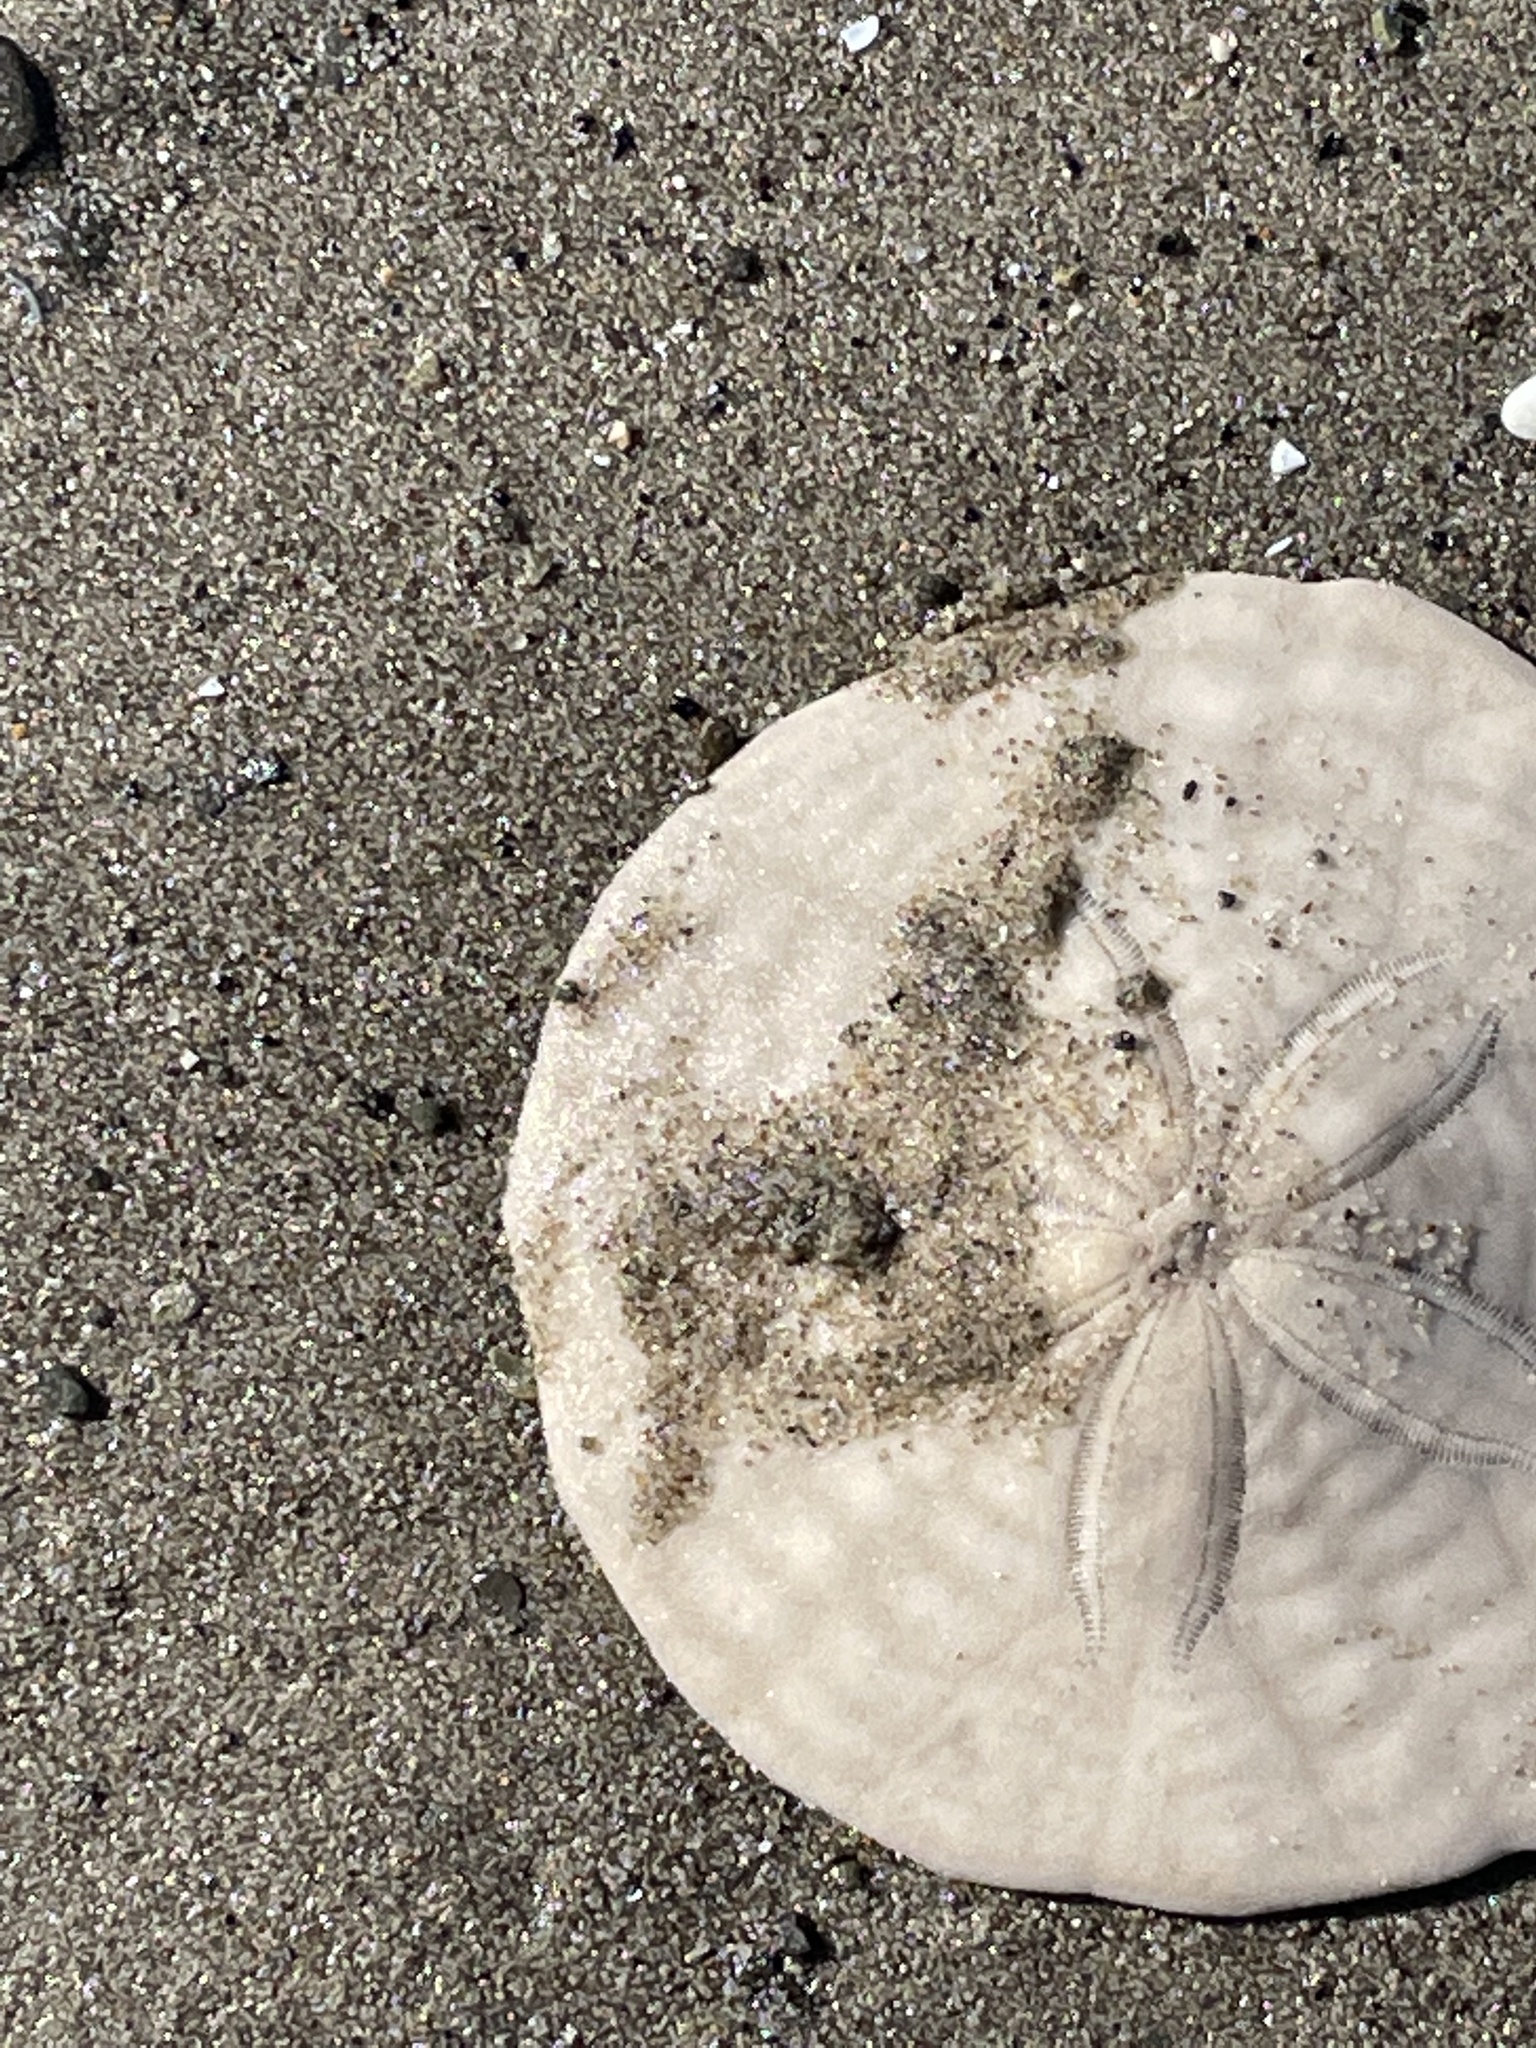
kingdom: Animalia
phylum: Echinodermata
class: Echinoidea
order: Echinolampadacea
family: Echinarachniidae
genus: Echinarachnius
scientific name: Echinarachnius parma
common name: Common sand dollar
